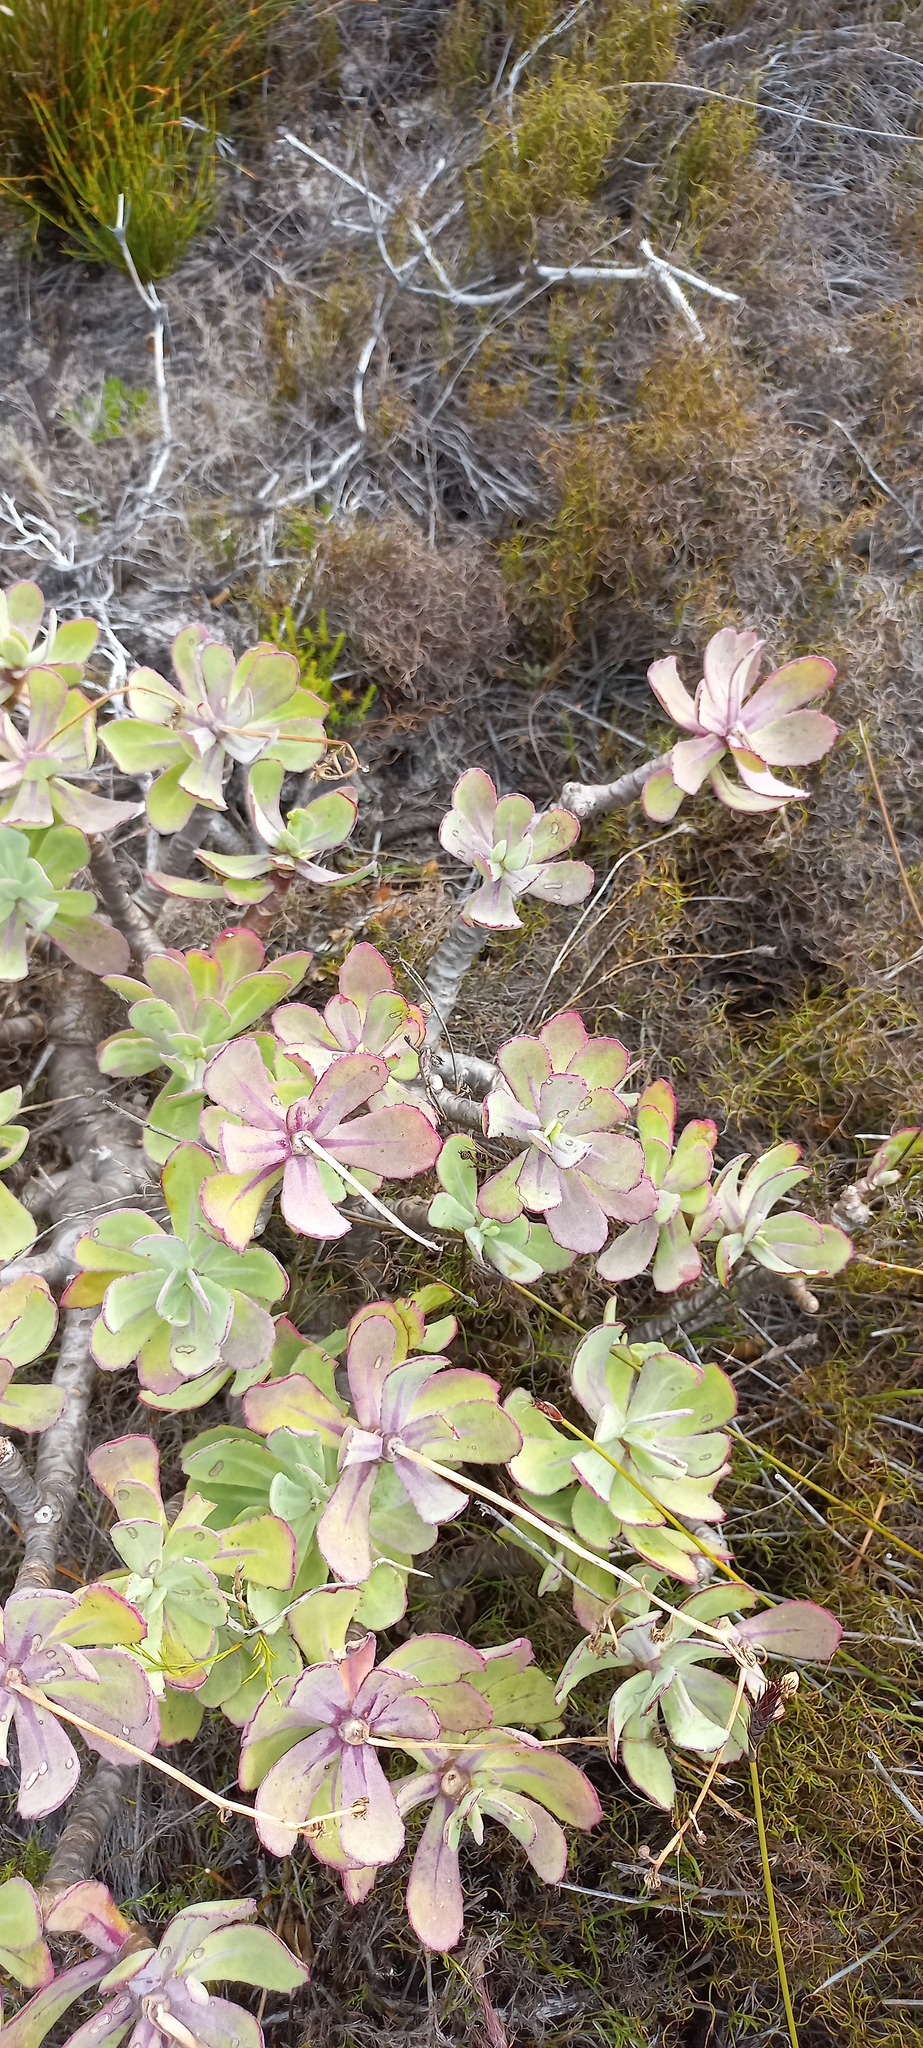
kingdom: Plantae
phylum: Tracheophyta
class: Magnoliopsida
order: Asterales
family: Asteraceae
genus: Othonna
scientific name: Othonna dentata
